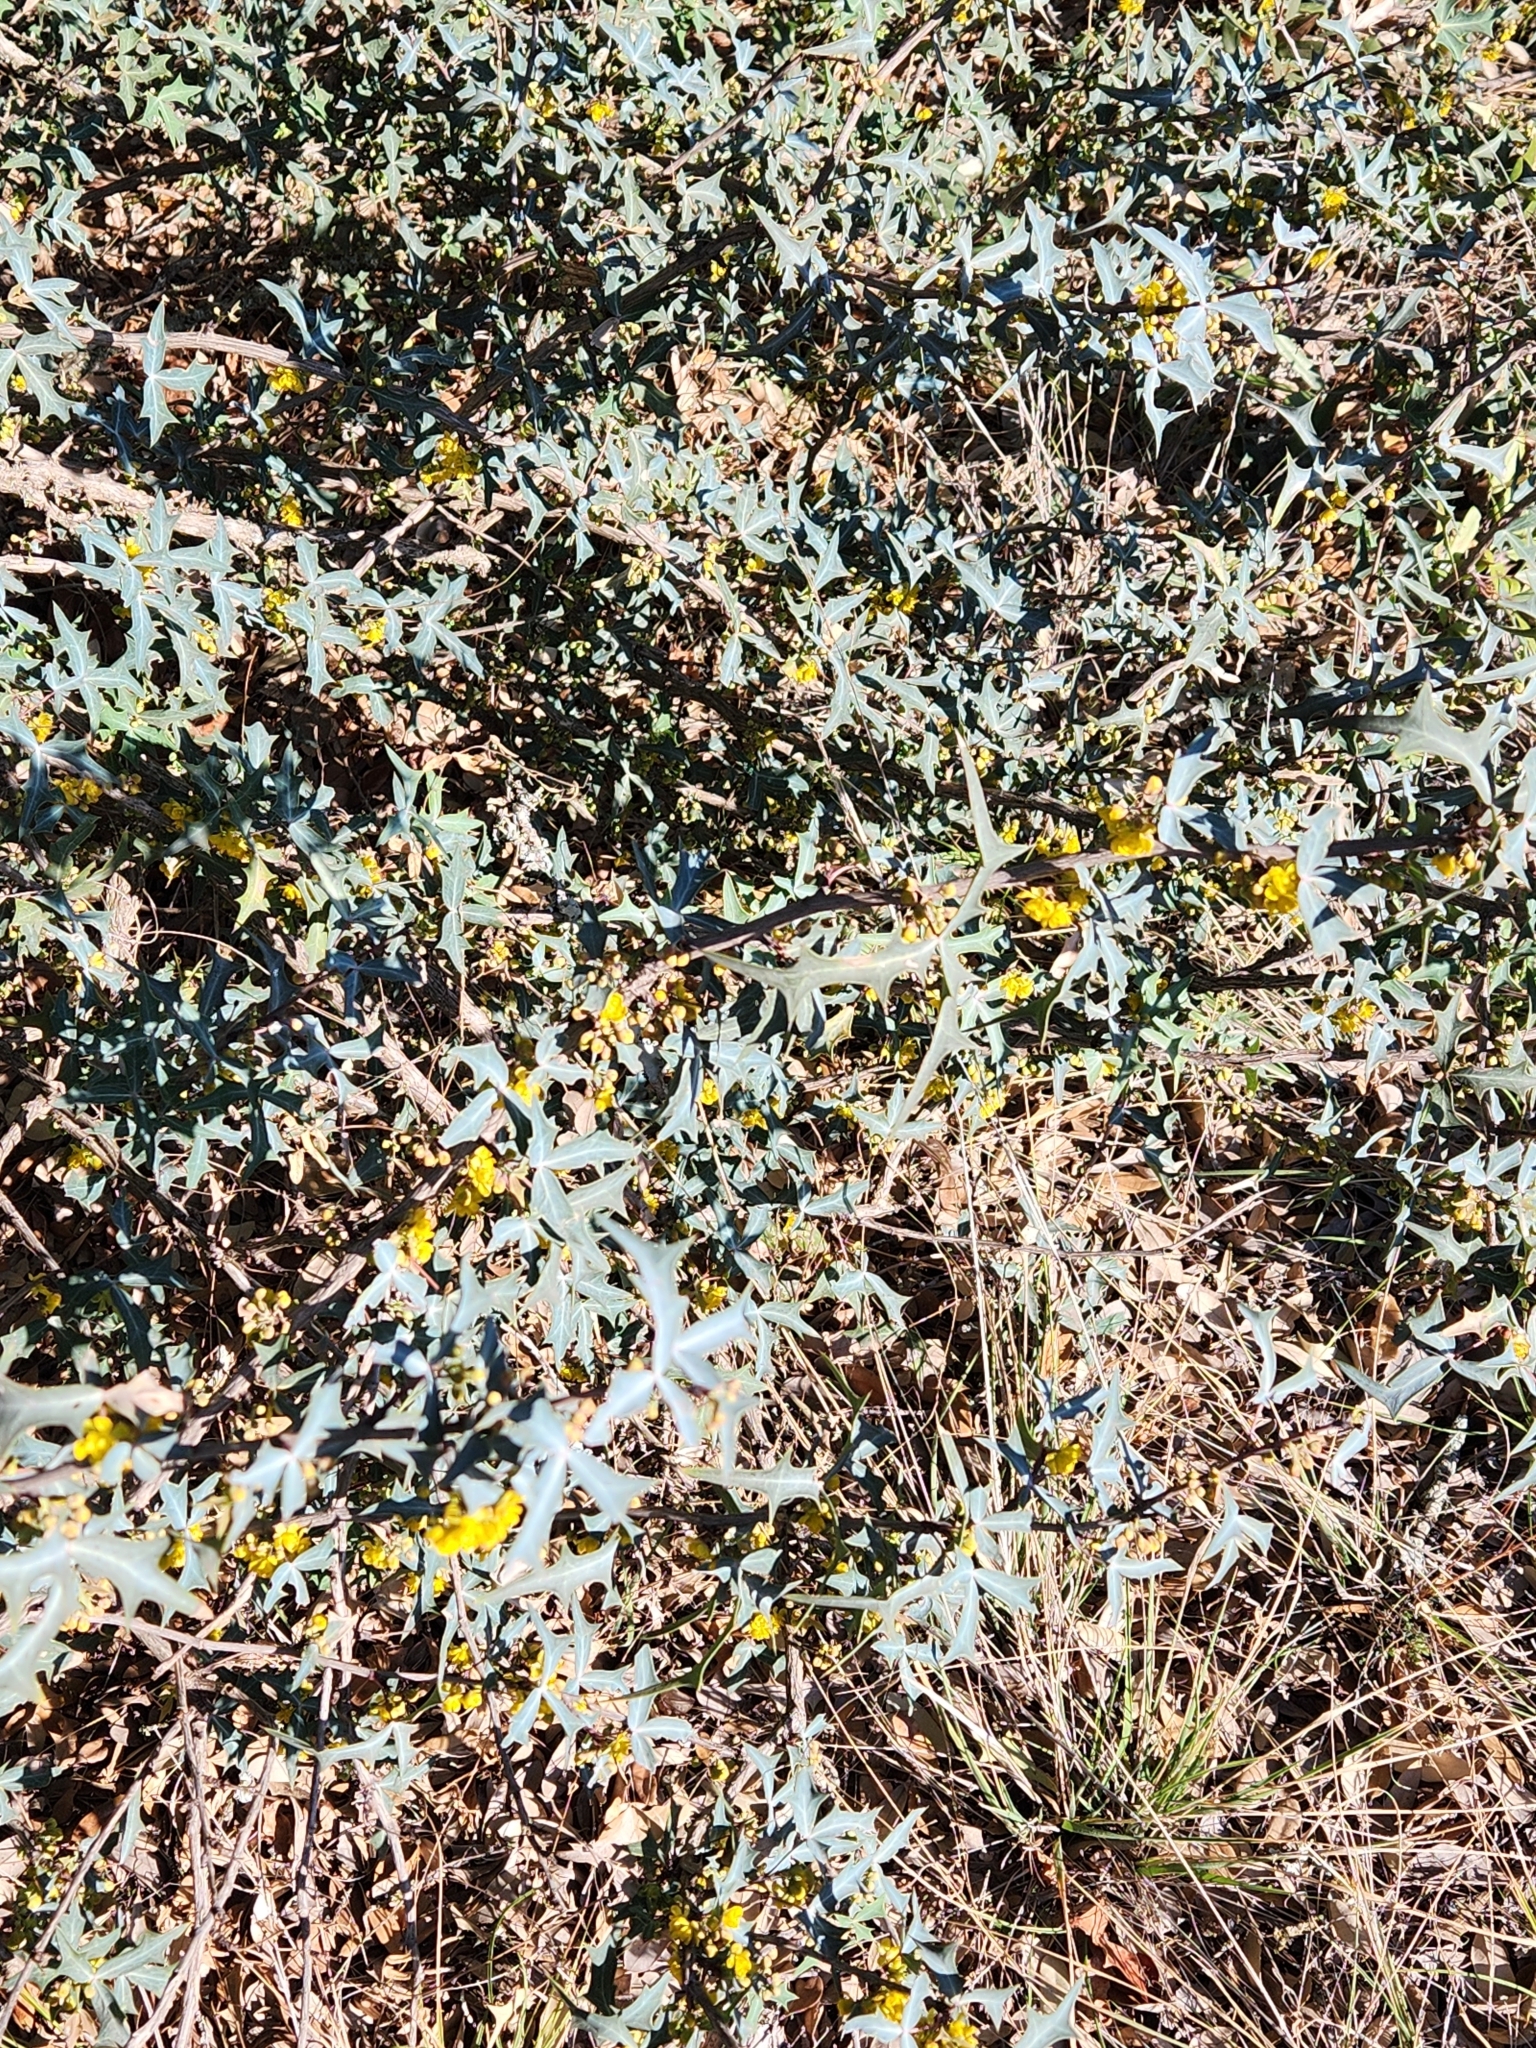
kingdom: Plantae
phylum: Tracheophyta
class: Magnoliopsida
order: Ranunculales
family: Berberidaceae
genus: Alloberberis
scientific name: Alloberberis trifoliolata
